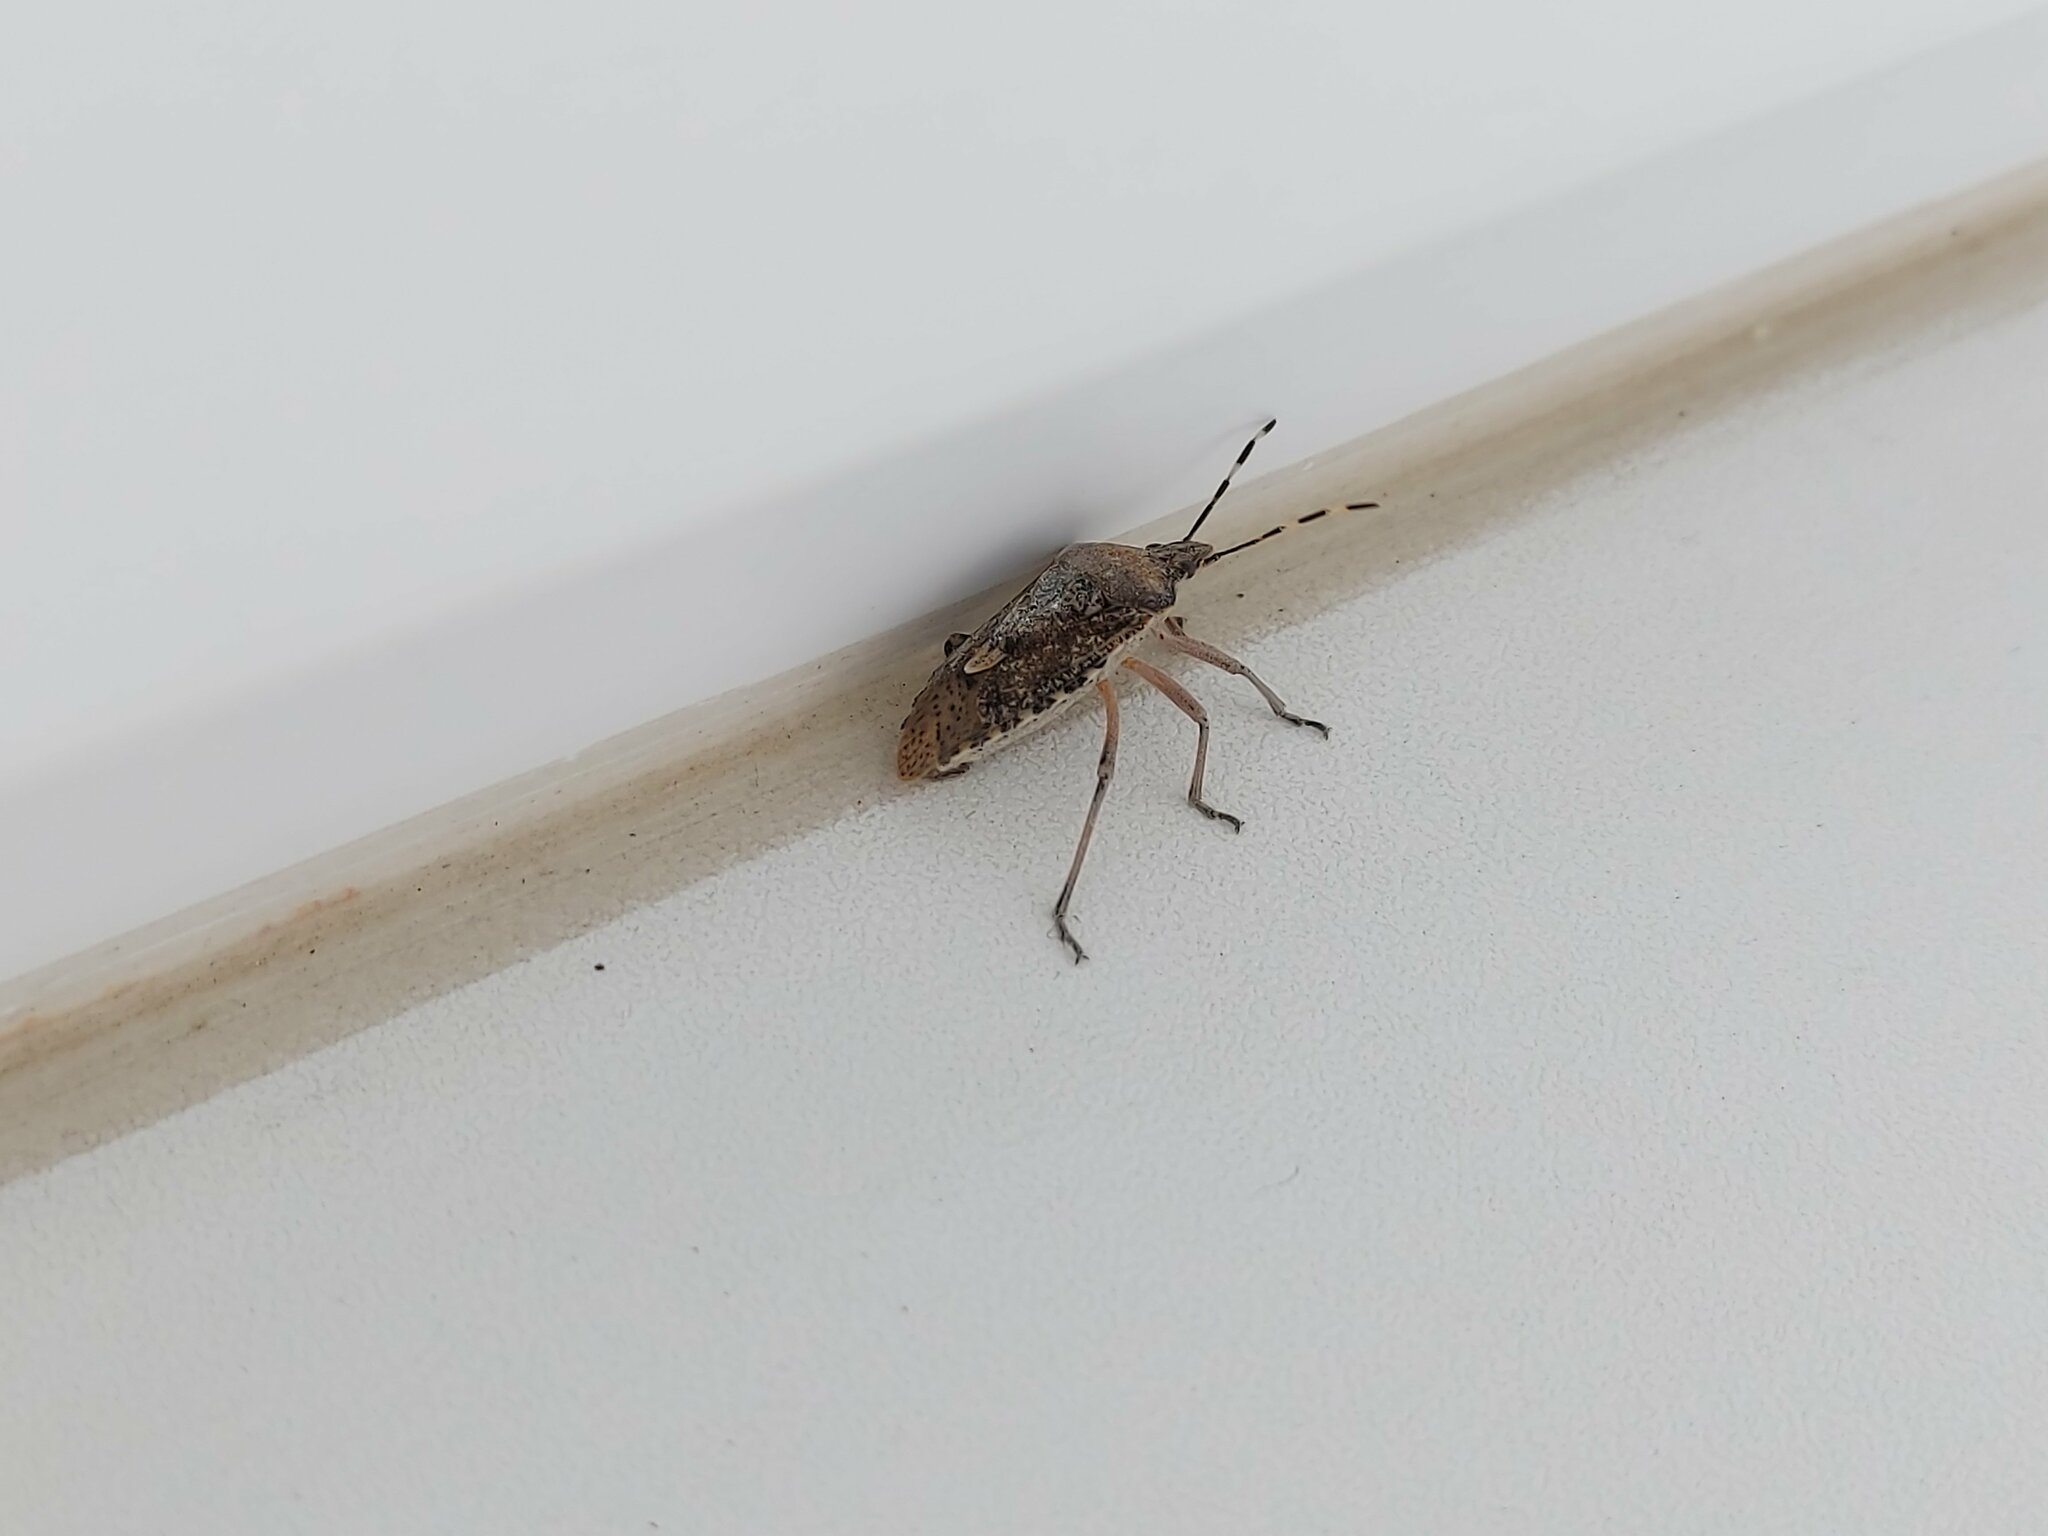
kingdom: Animalia
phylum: Arthropoda
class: Insecta
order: Hemiptera
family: Pentatomidae
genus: Rhaphigaster
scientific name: Rhaphigaster nebulosa
